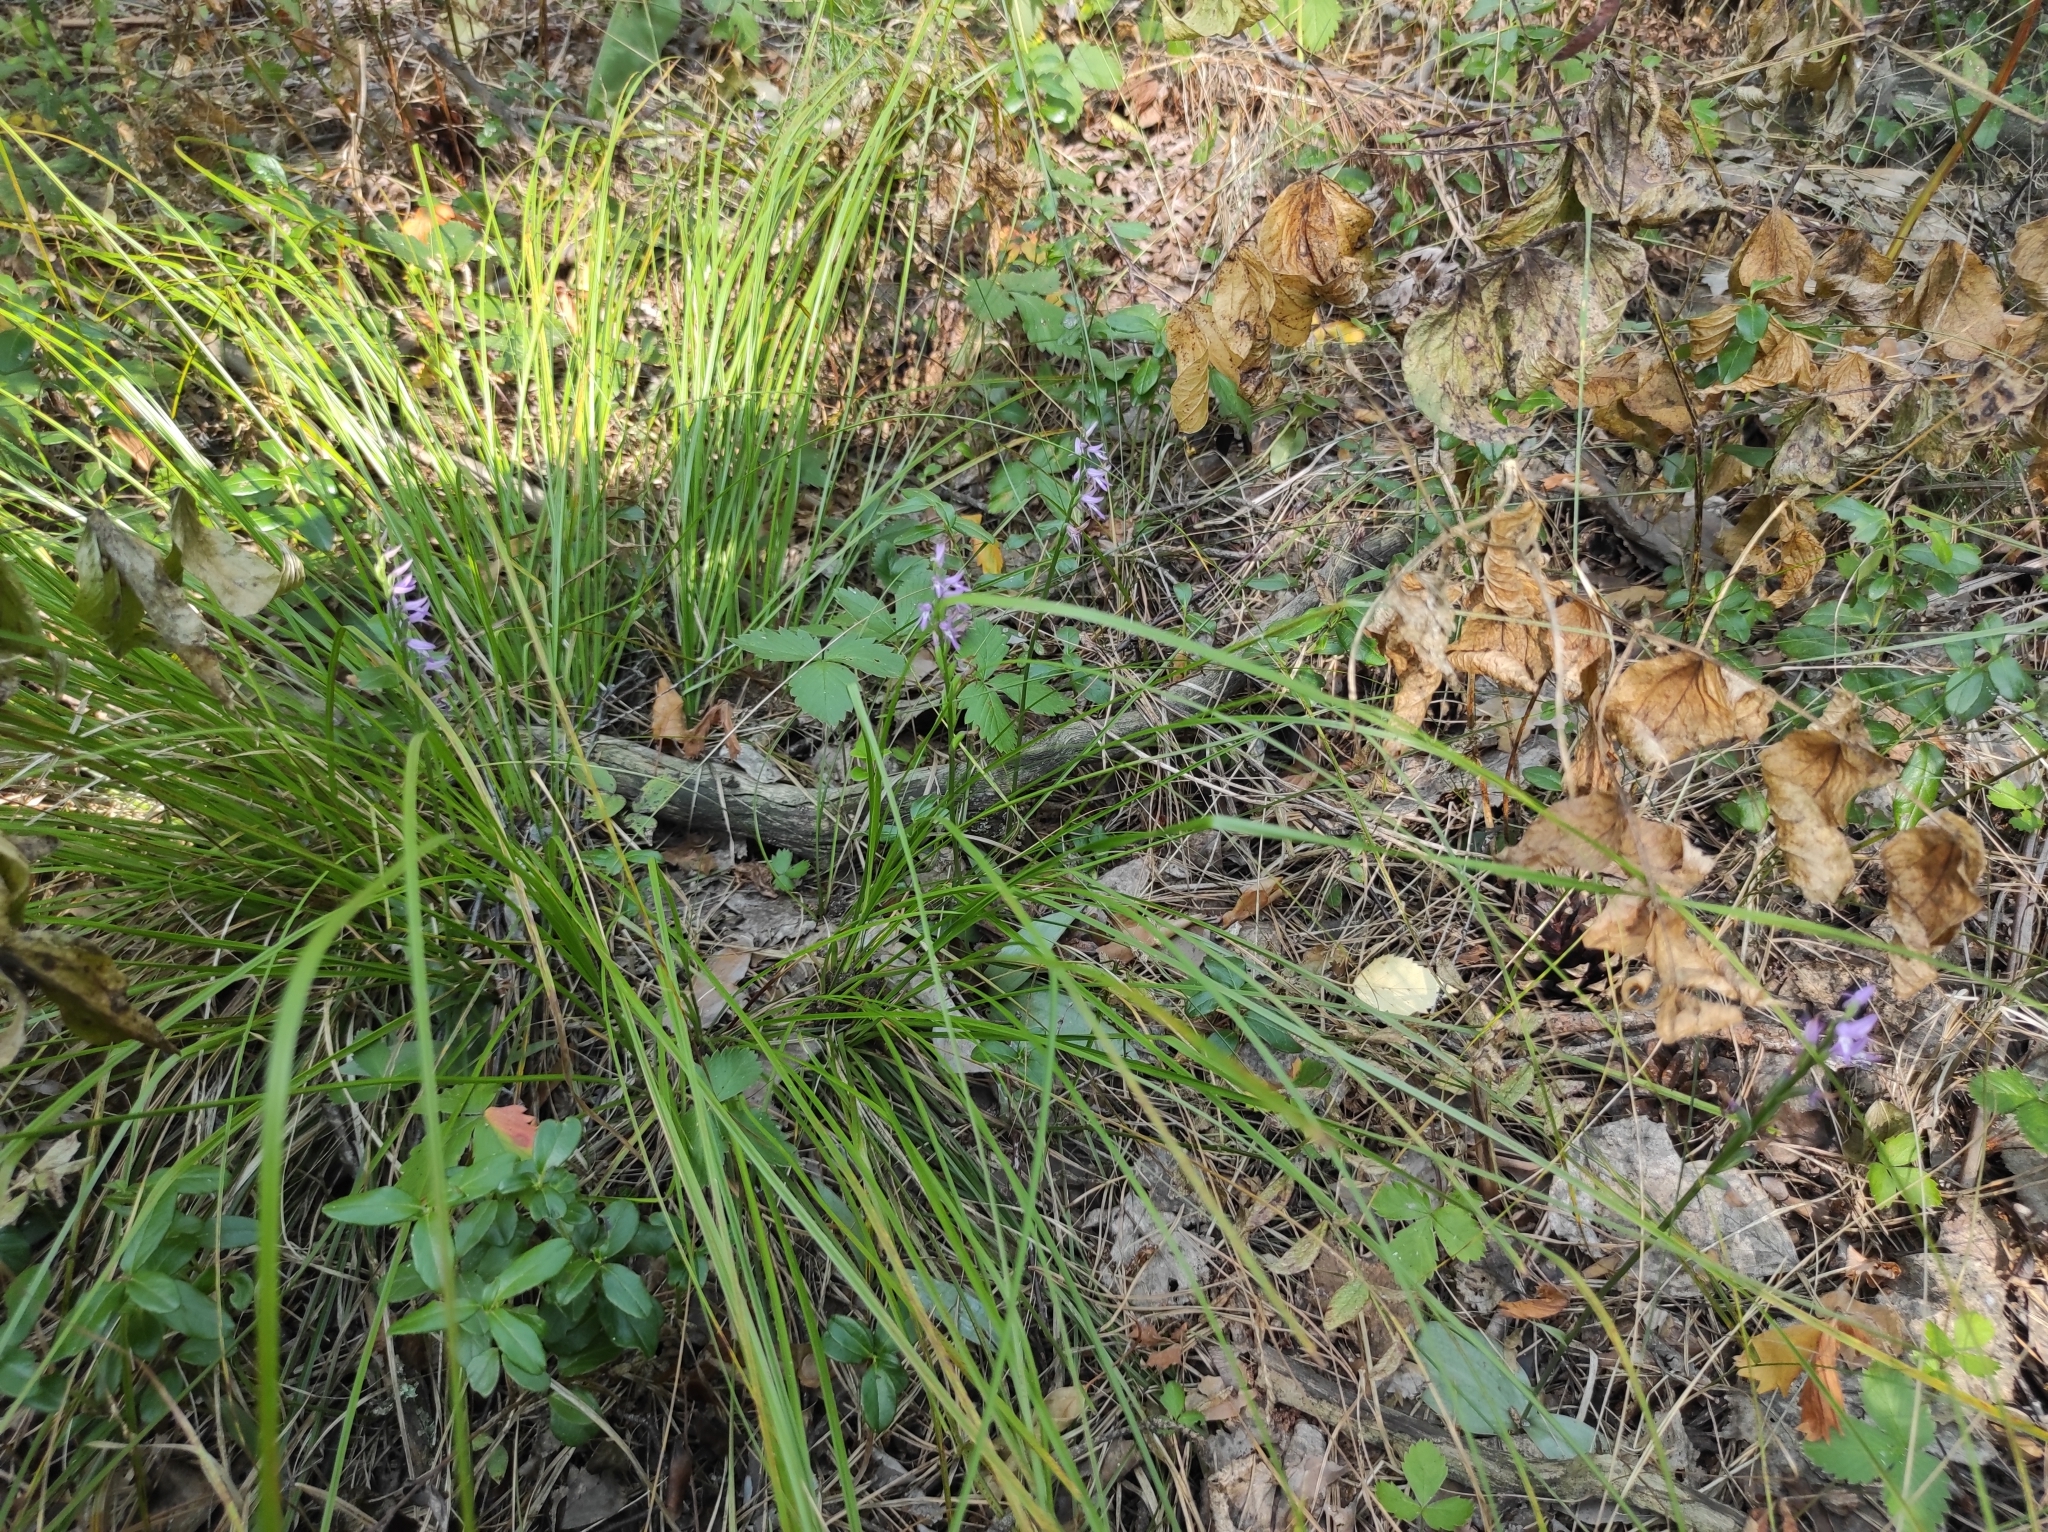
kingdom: Plantae
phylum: Tracheophyta
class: Liliopsida
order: Asparagales
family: Orchidaceae
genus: Hemipilia
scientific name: Hemipilia cucullata
